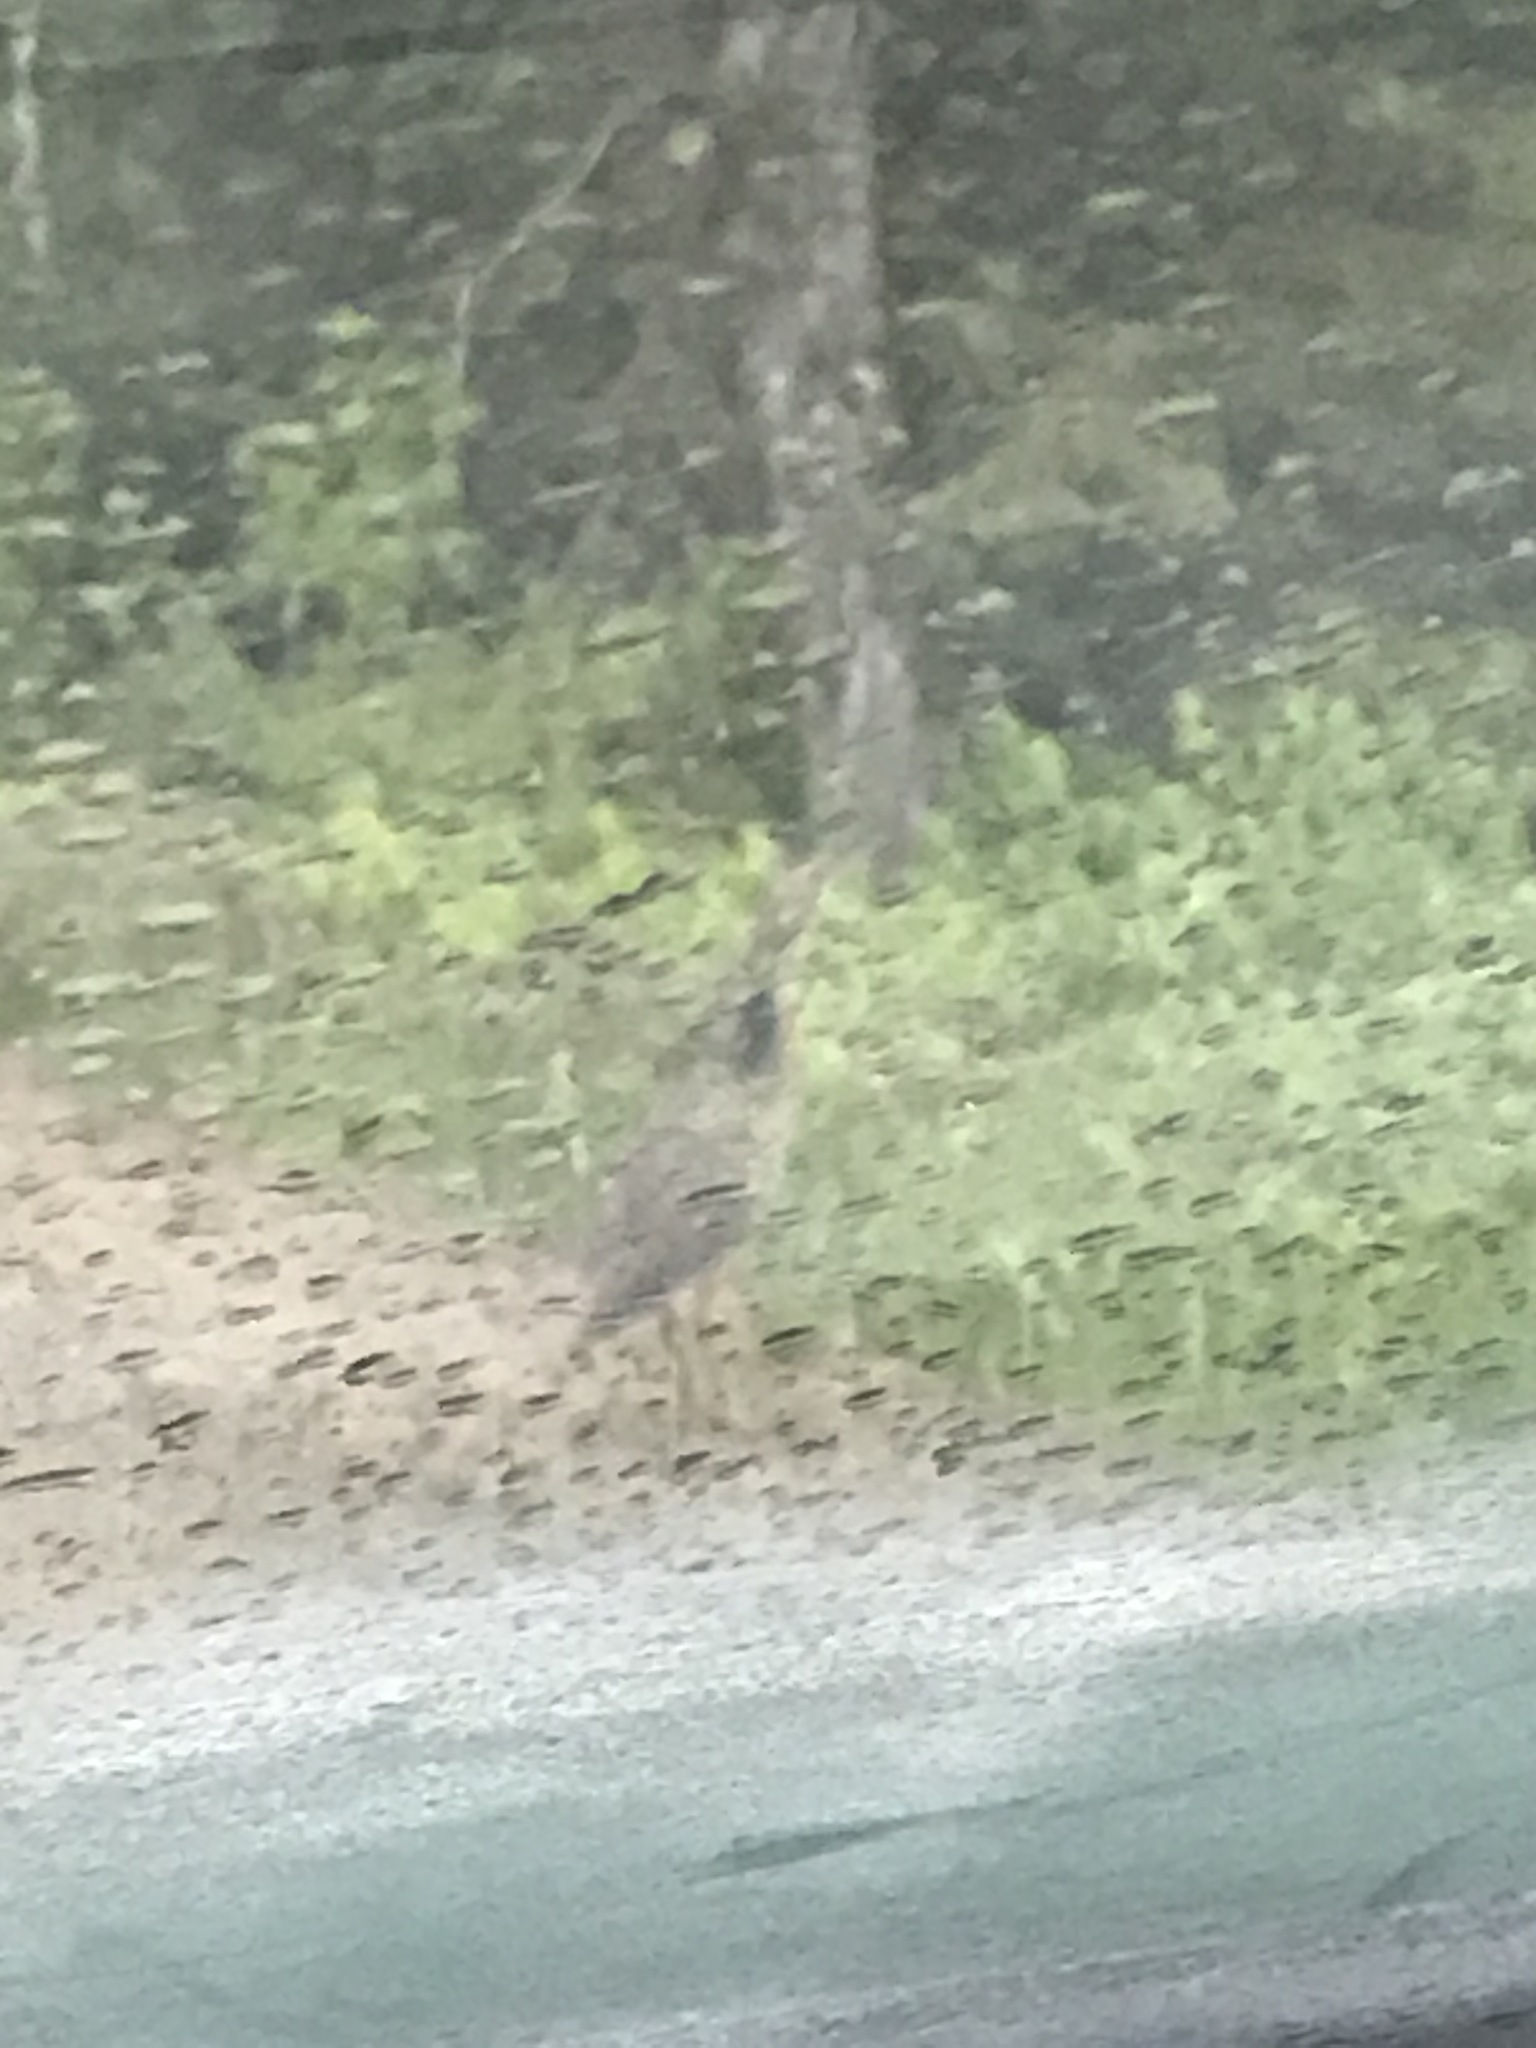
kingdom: Animalia
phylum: Chordata
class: Aves
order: Pelecaniformes
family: Ardeidae
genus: Botaurus
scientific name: Botaurus lentiginosus
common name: American bittern
